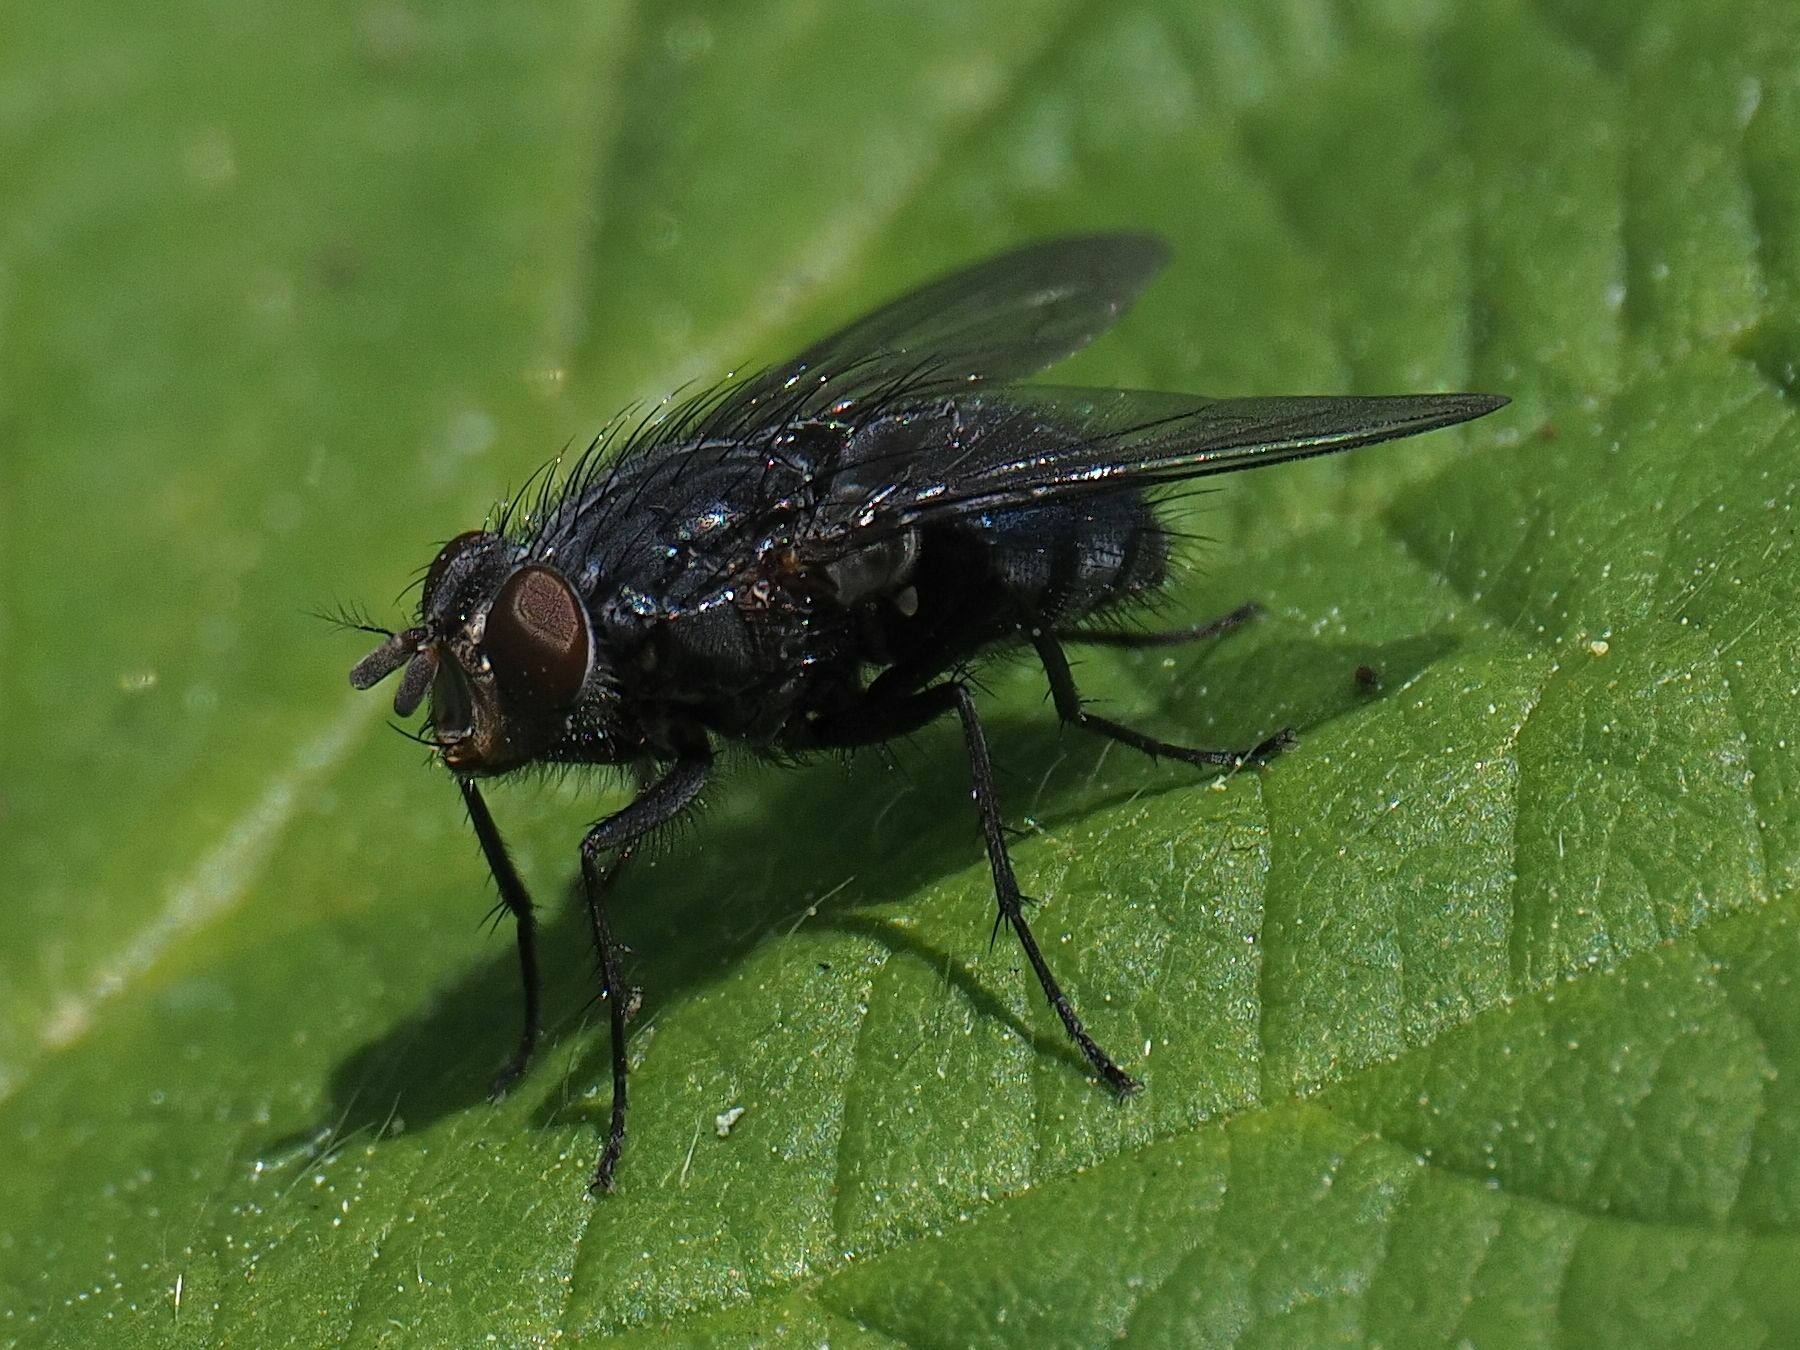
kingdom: Animalia
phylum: Arthropoda
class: Insecta
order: Diptera
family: Calliphoridae
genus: Calliphora
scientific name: Calliphora vicina
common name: Common blow flie
